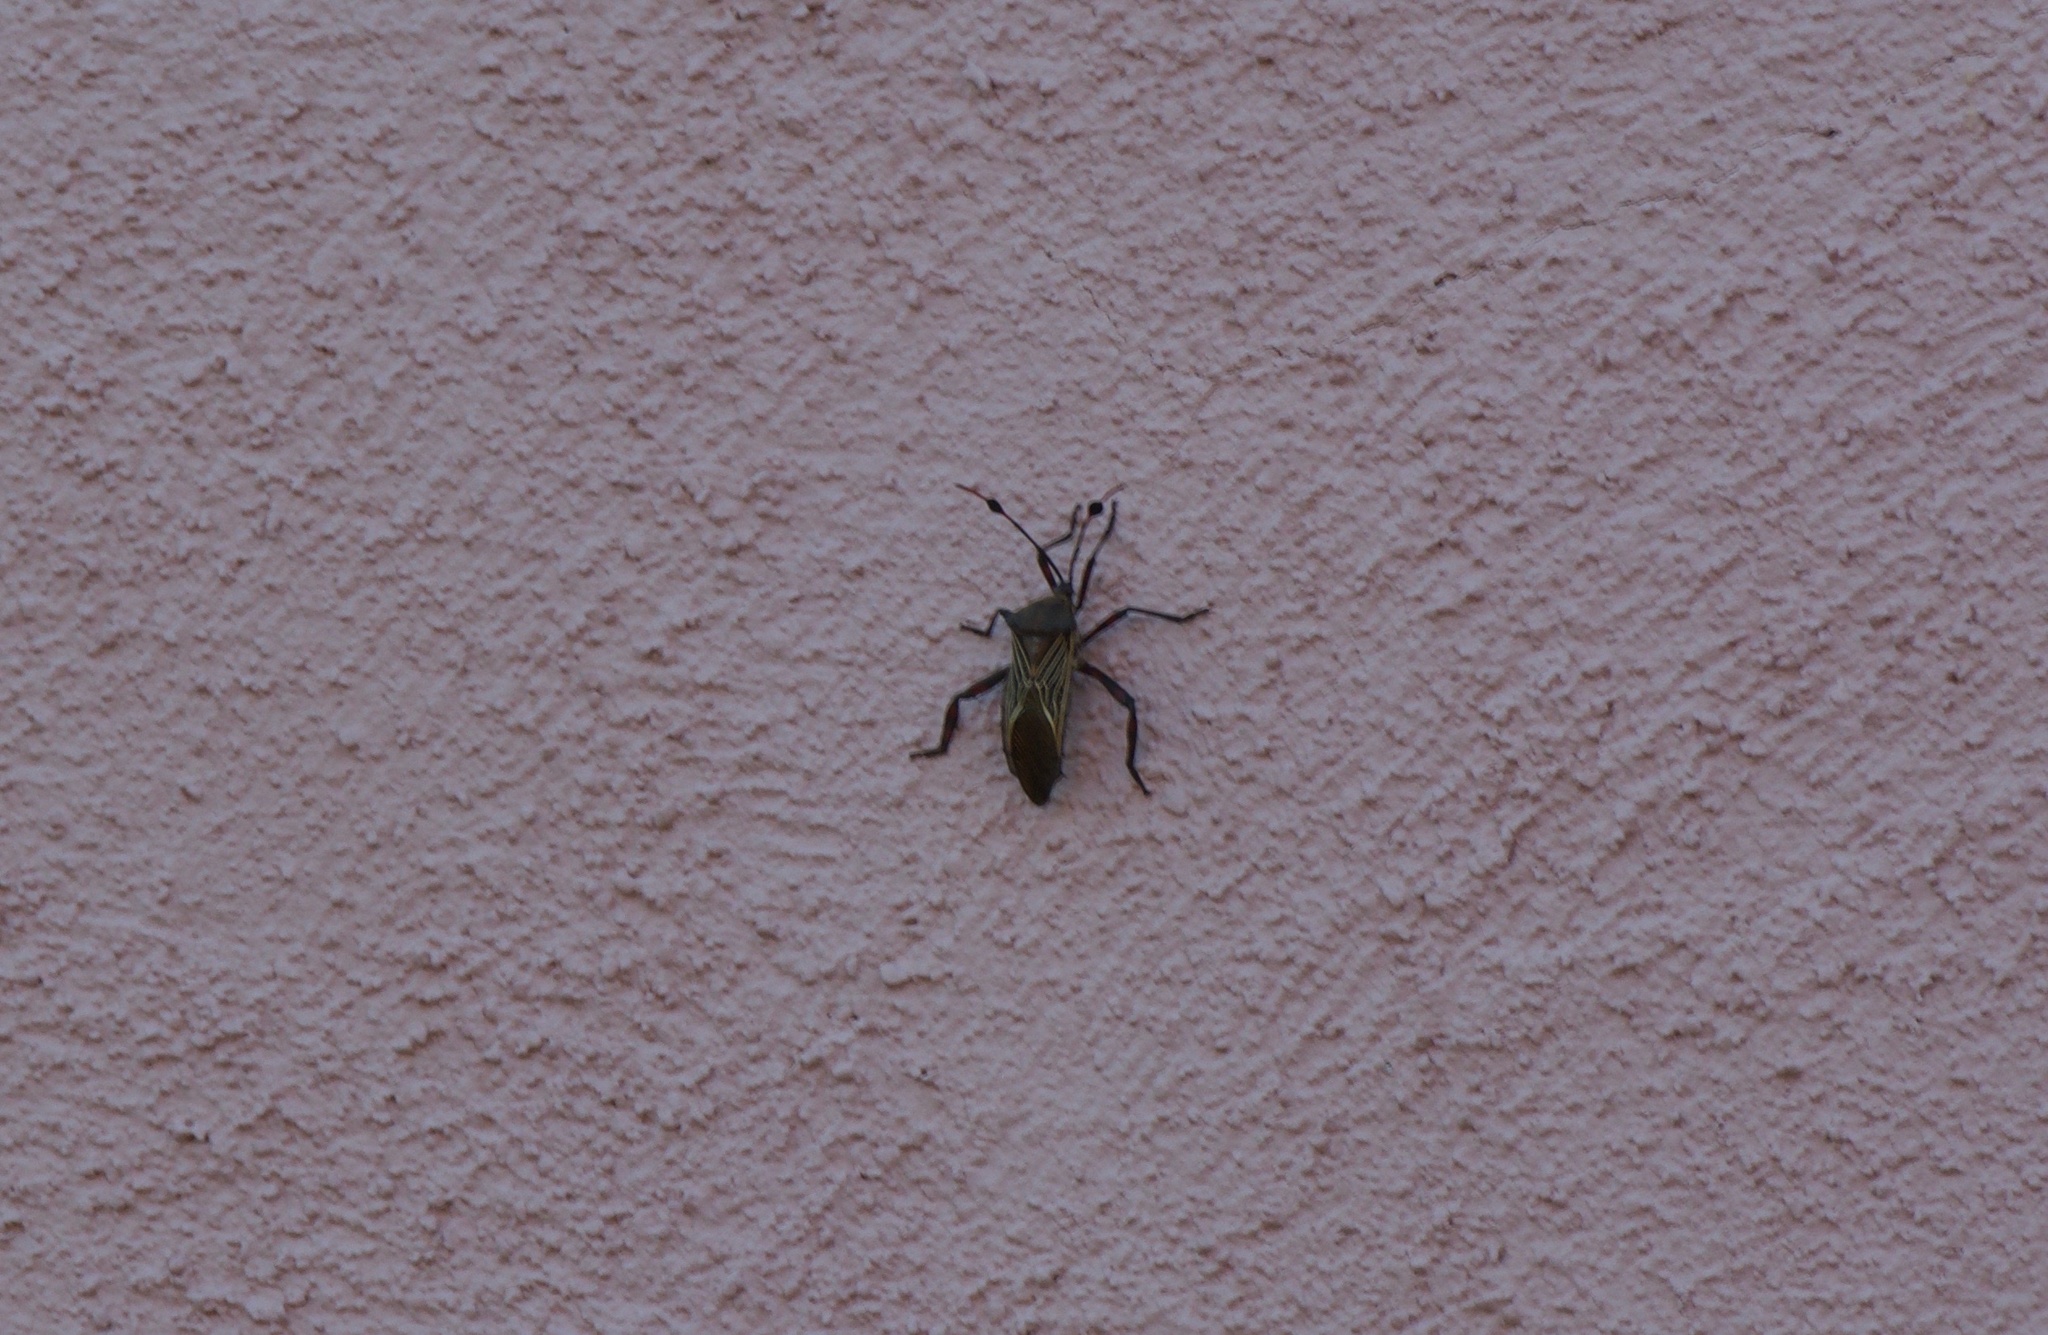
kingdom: Animalia
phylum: Arthropoda
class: Insecta
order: Hemiptera
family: Coreidae
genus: Thasus
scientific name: Thasus neocalifornicus
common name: Giant mesquite bug
